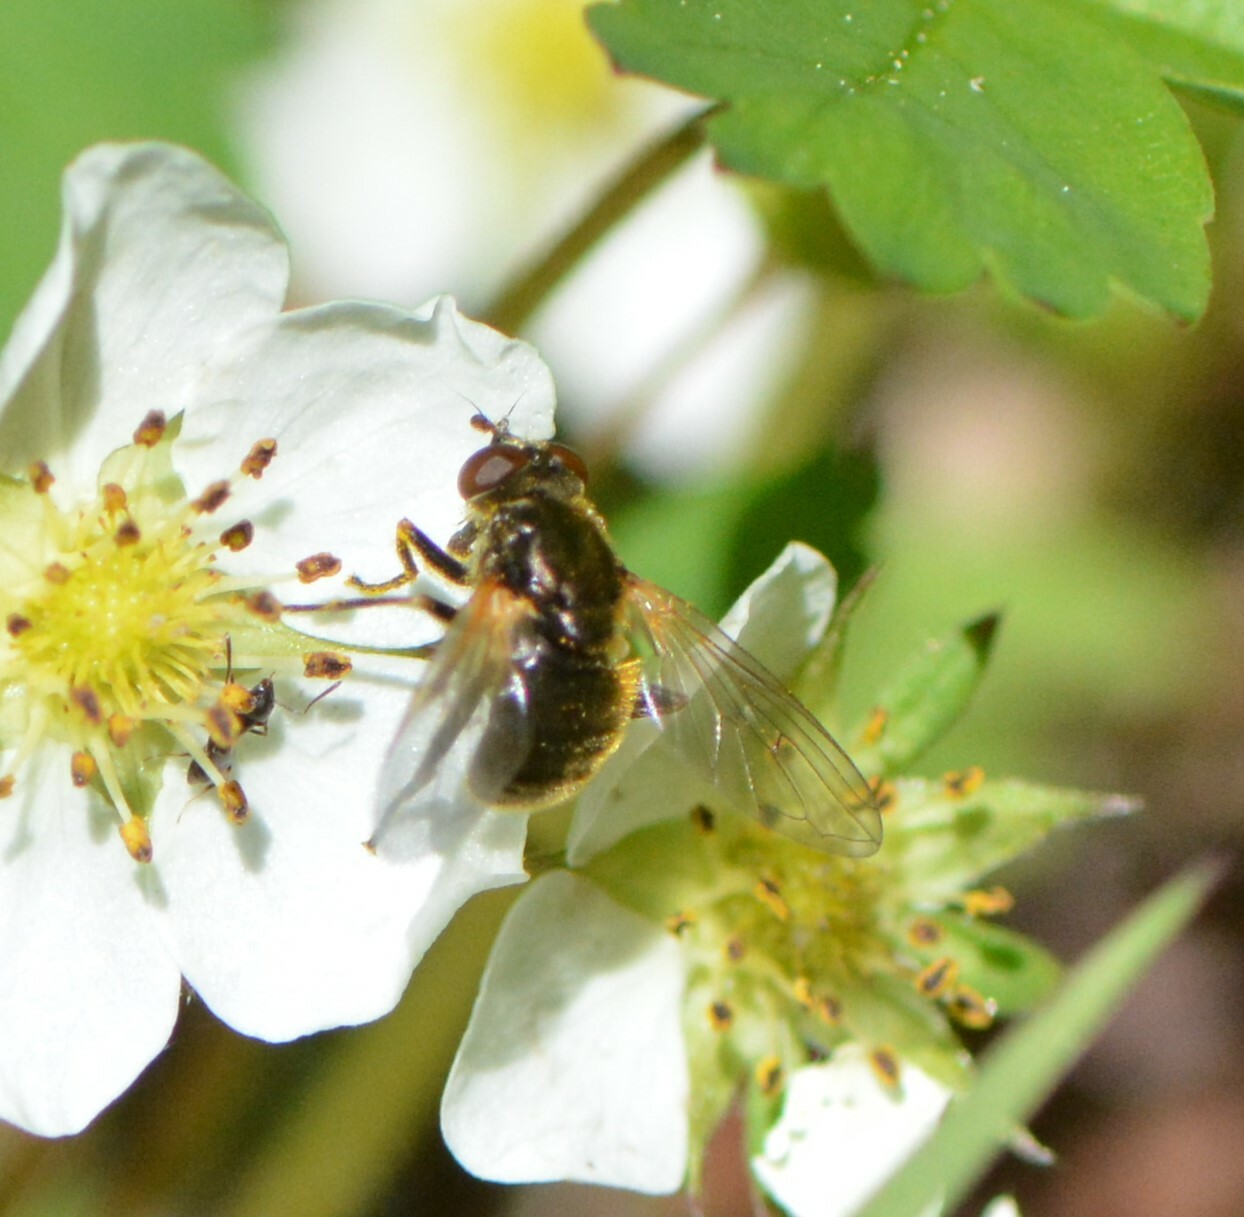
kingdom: Animalia
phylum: Arthropoda
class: Insecta
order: Diptera
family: Syrphidae
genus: Blera
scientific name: Blera nigra
